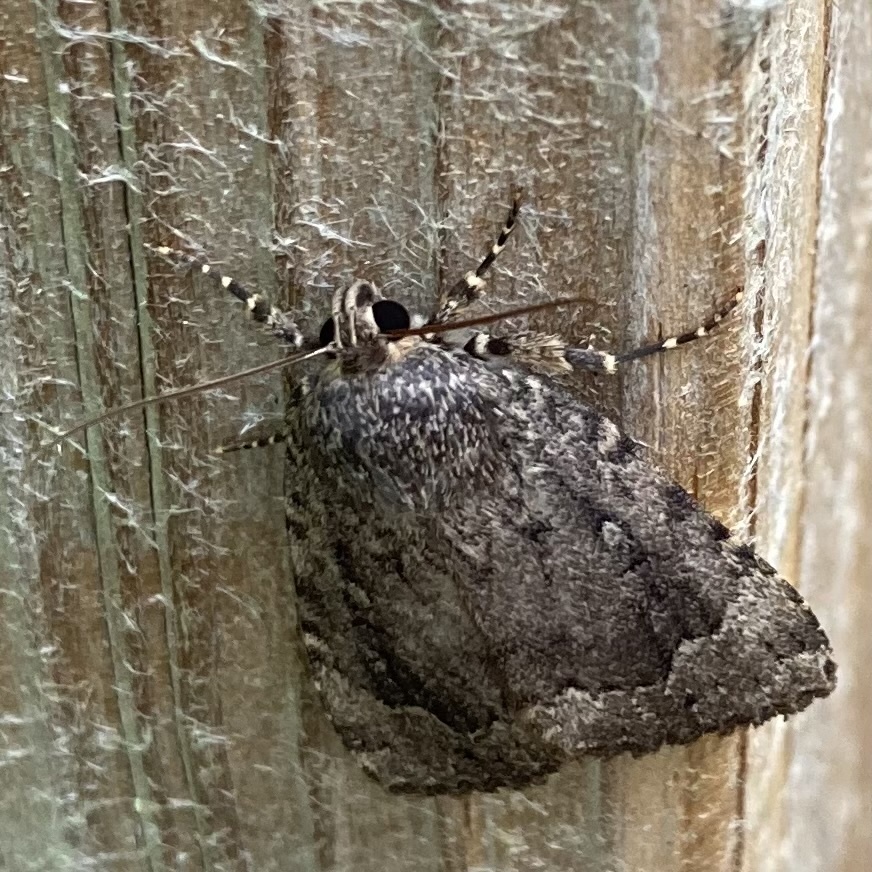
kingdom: Animalia
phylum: Arthropoda
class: Insecta
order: Lepidoptera
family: Noctuidae
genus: Amphipyra
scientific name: Amphipyra pyramidoides
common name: American copper underwing
